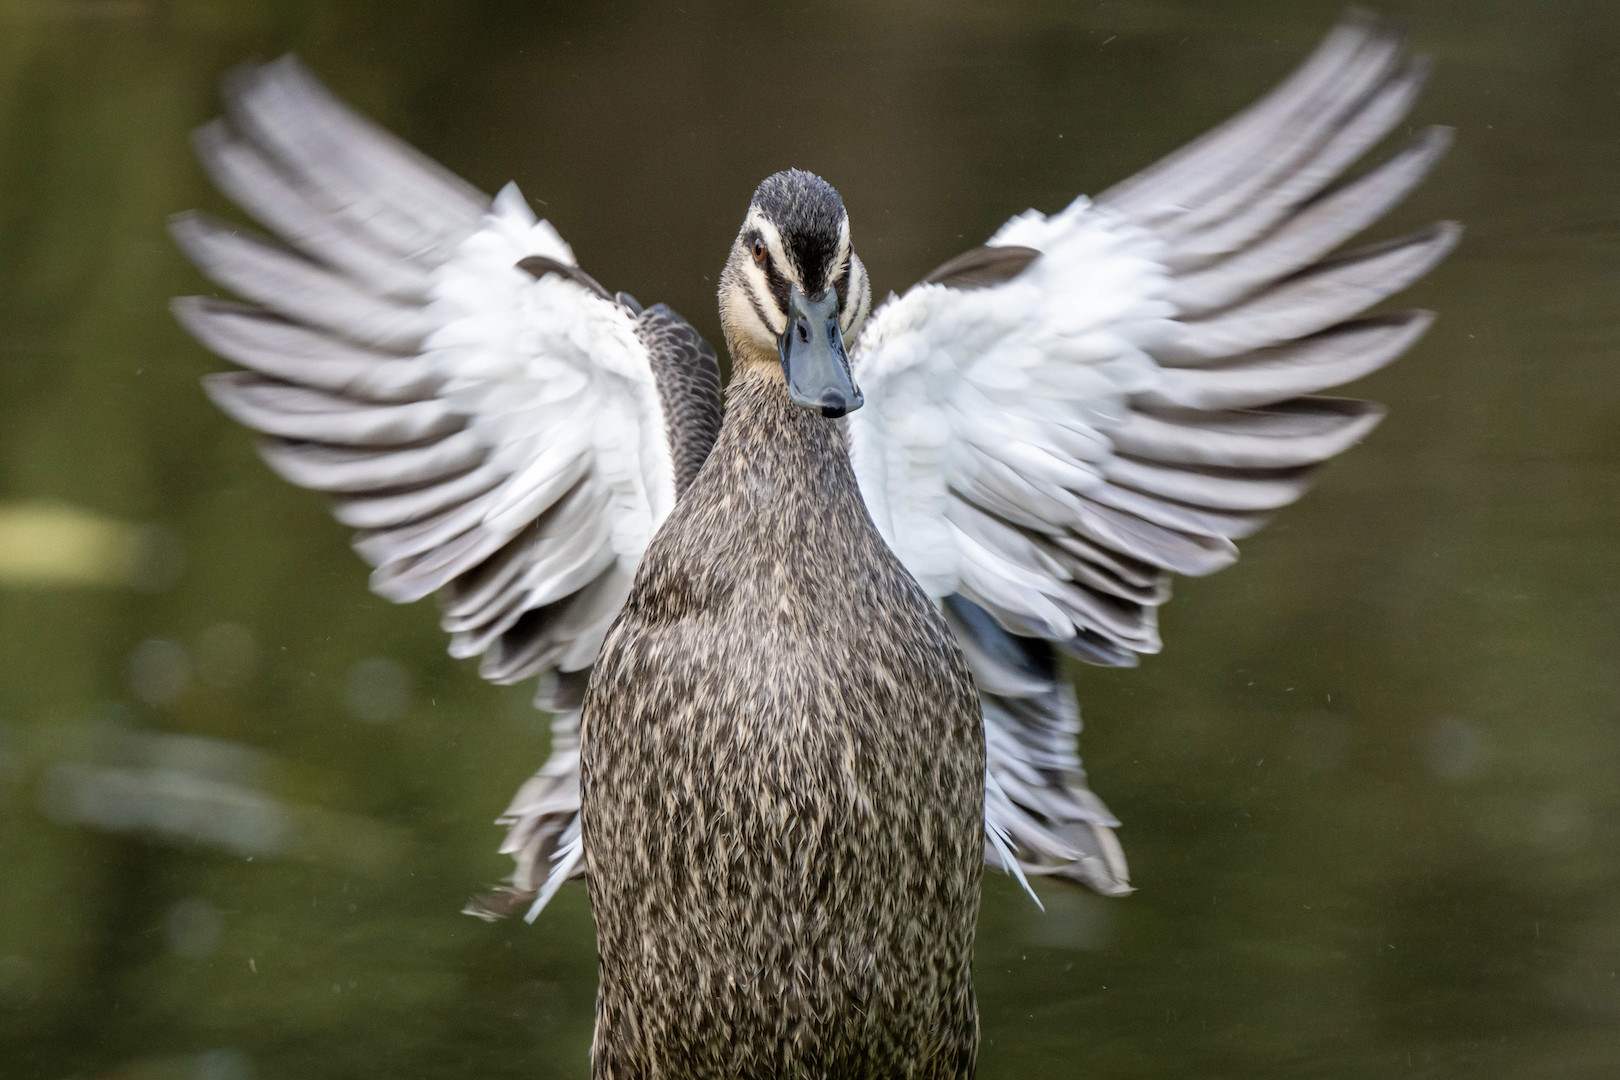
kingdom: Animalia
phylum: Chordata
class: Aves
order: Anseriformes
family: Anatidae
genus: Anas
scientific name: Anas superciliosa
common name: Pacific black duck
